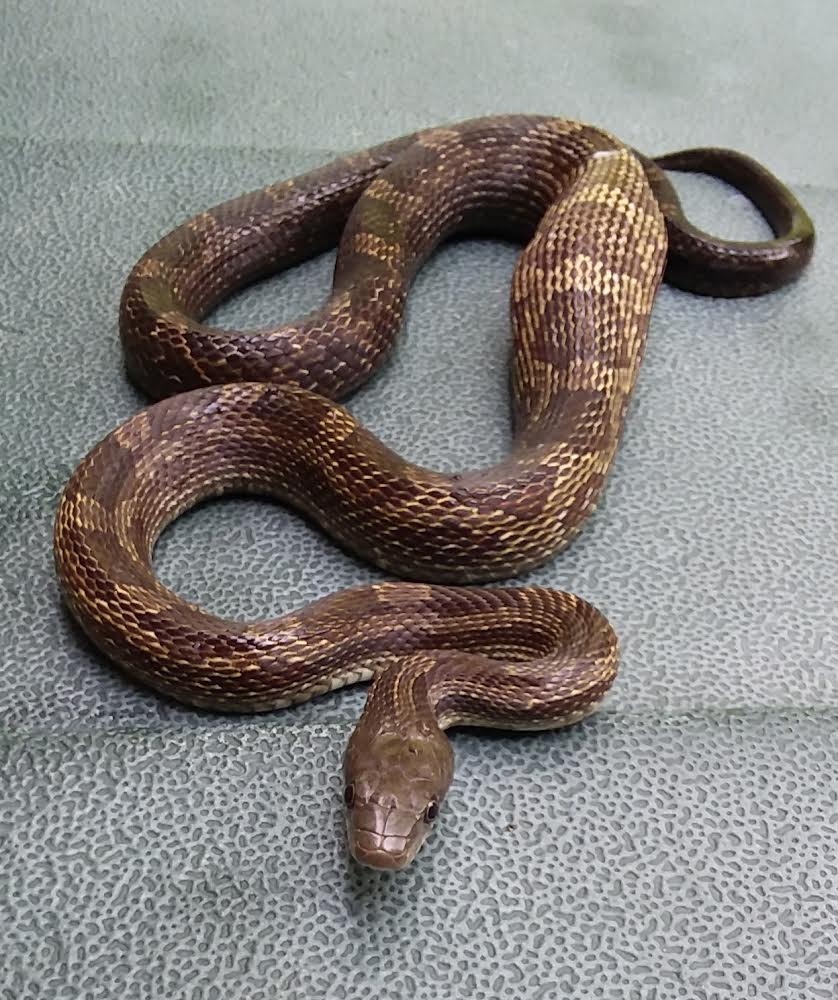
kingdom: Animalia
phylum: Chordata
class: Squamata
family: Colubridae
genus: Pantherophis
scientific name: Pantherophis spiloides
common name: Gray rat snake
